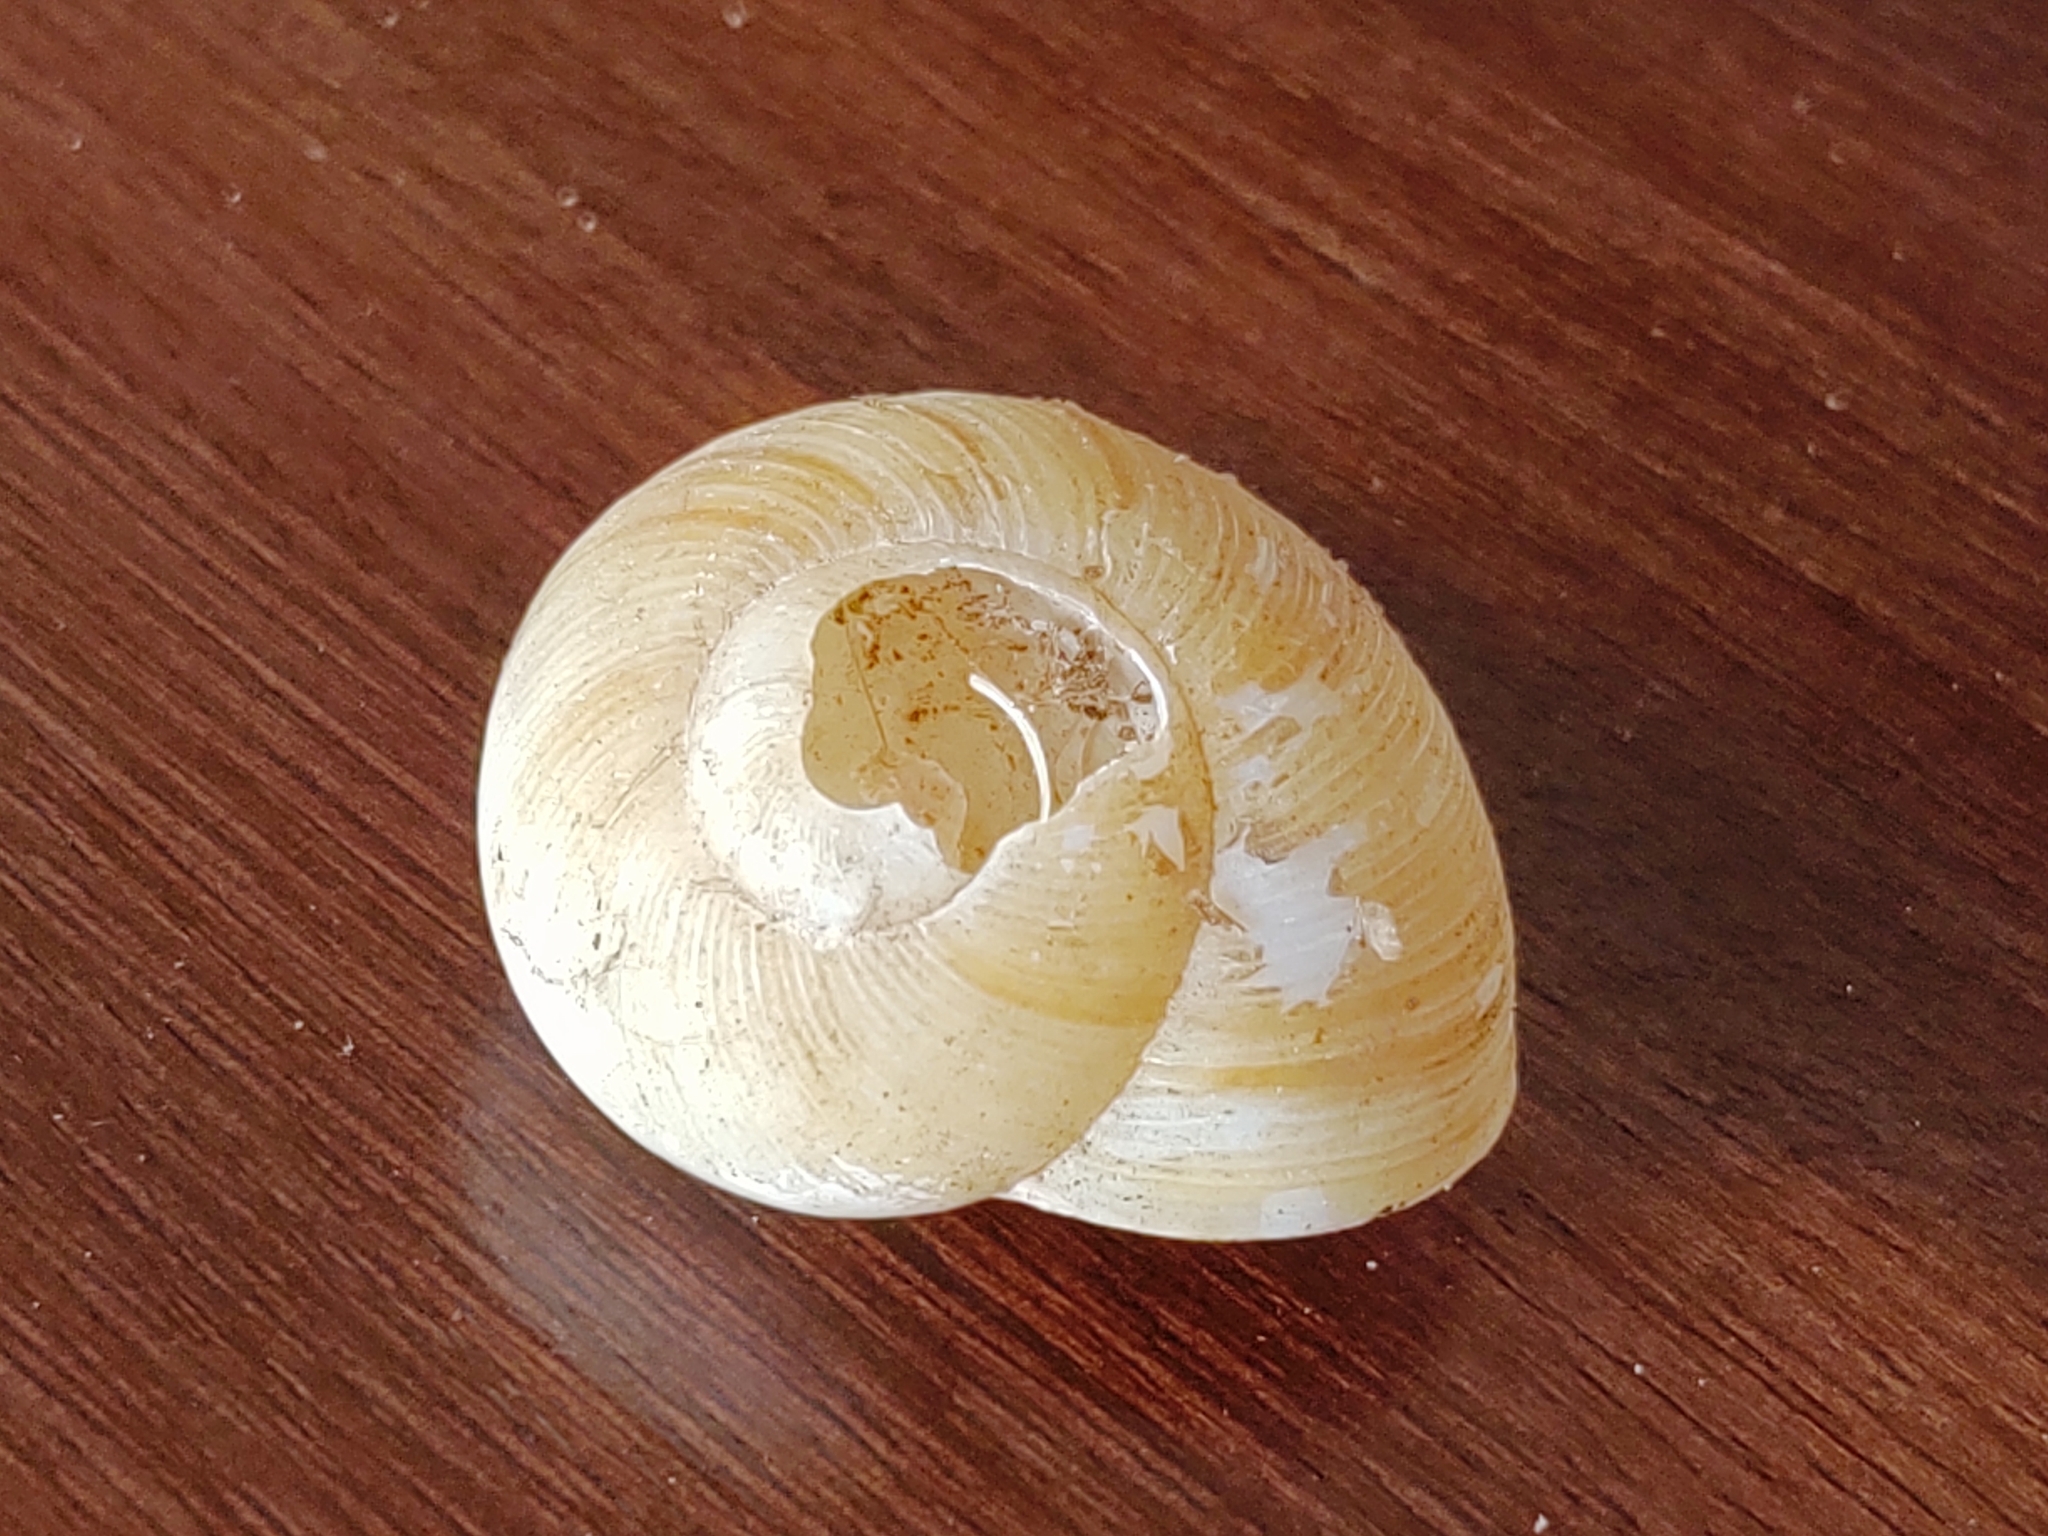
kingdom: Animalia
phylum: Mollusca
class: Gastropoda
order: Stylommatophora
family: Zachrysiidae
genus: Zachrysia
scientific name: Zachrysia provisoria
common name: Garden zachrysia
